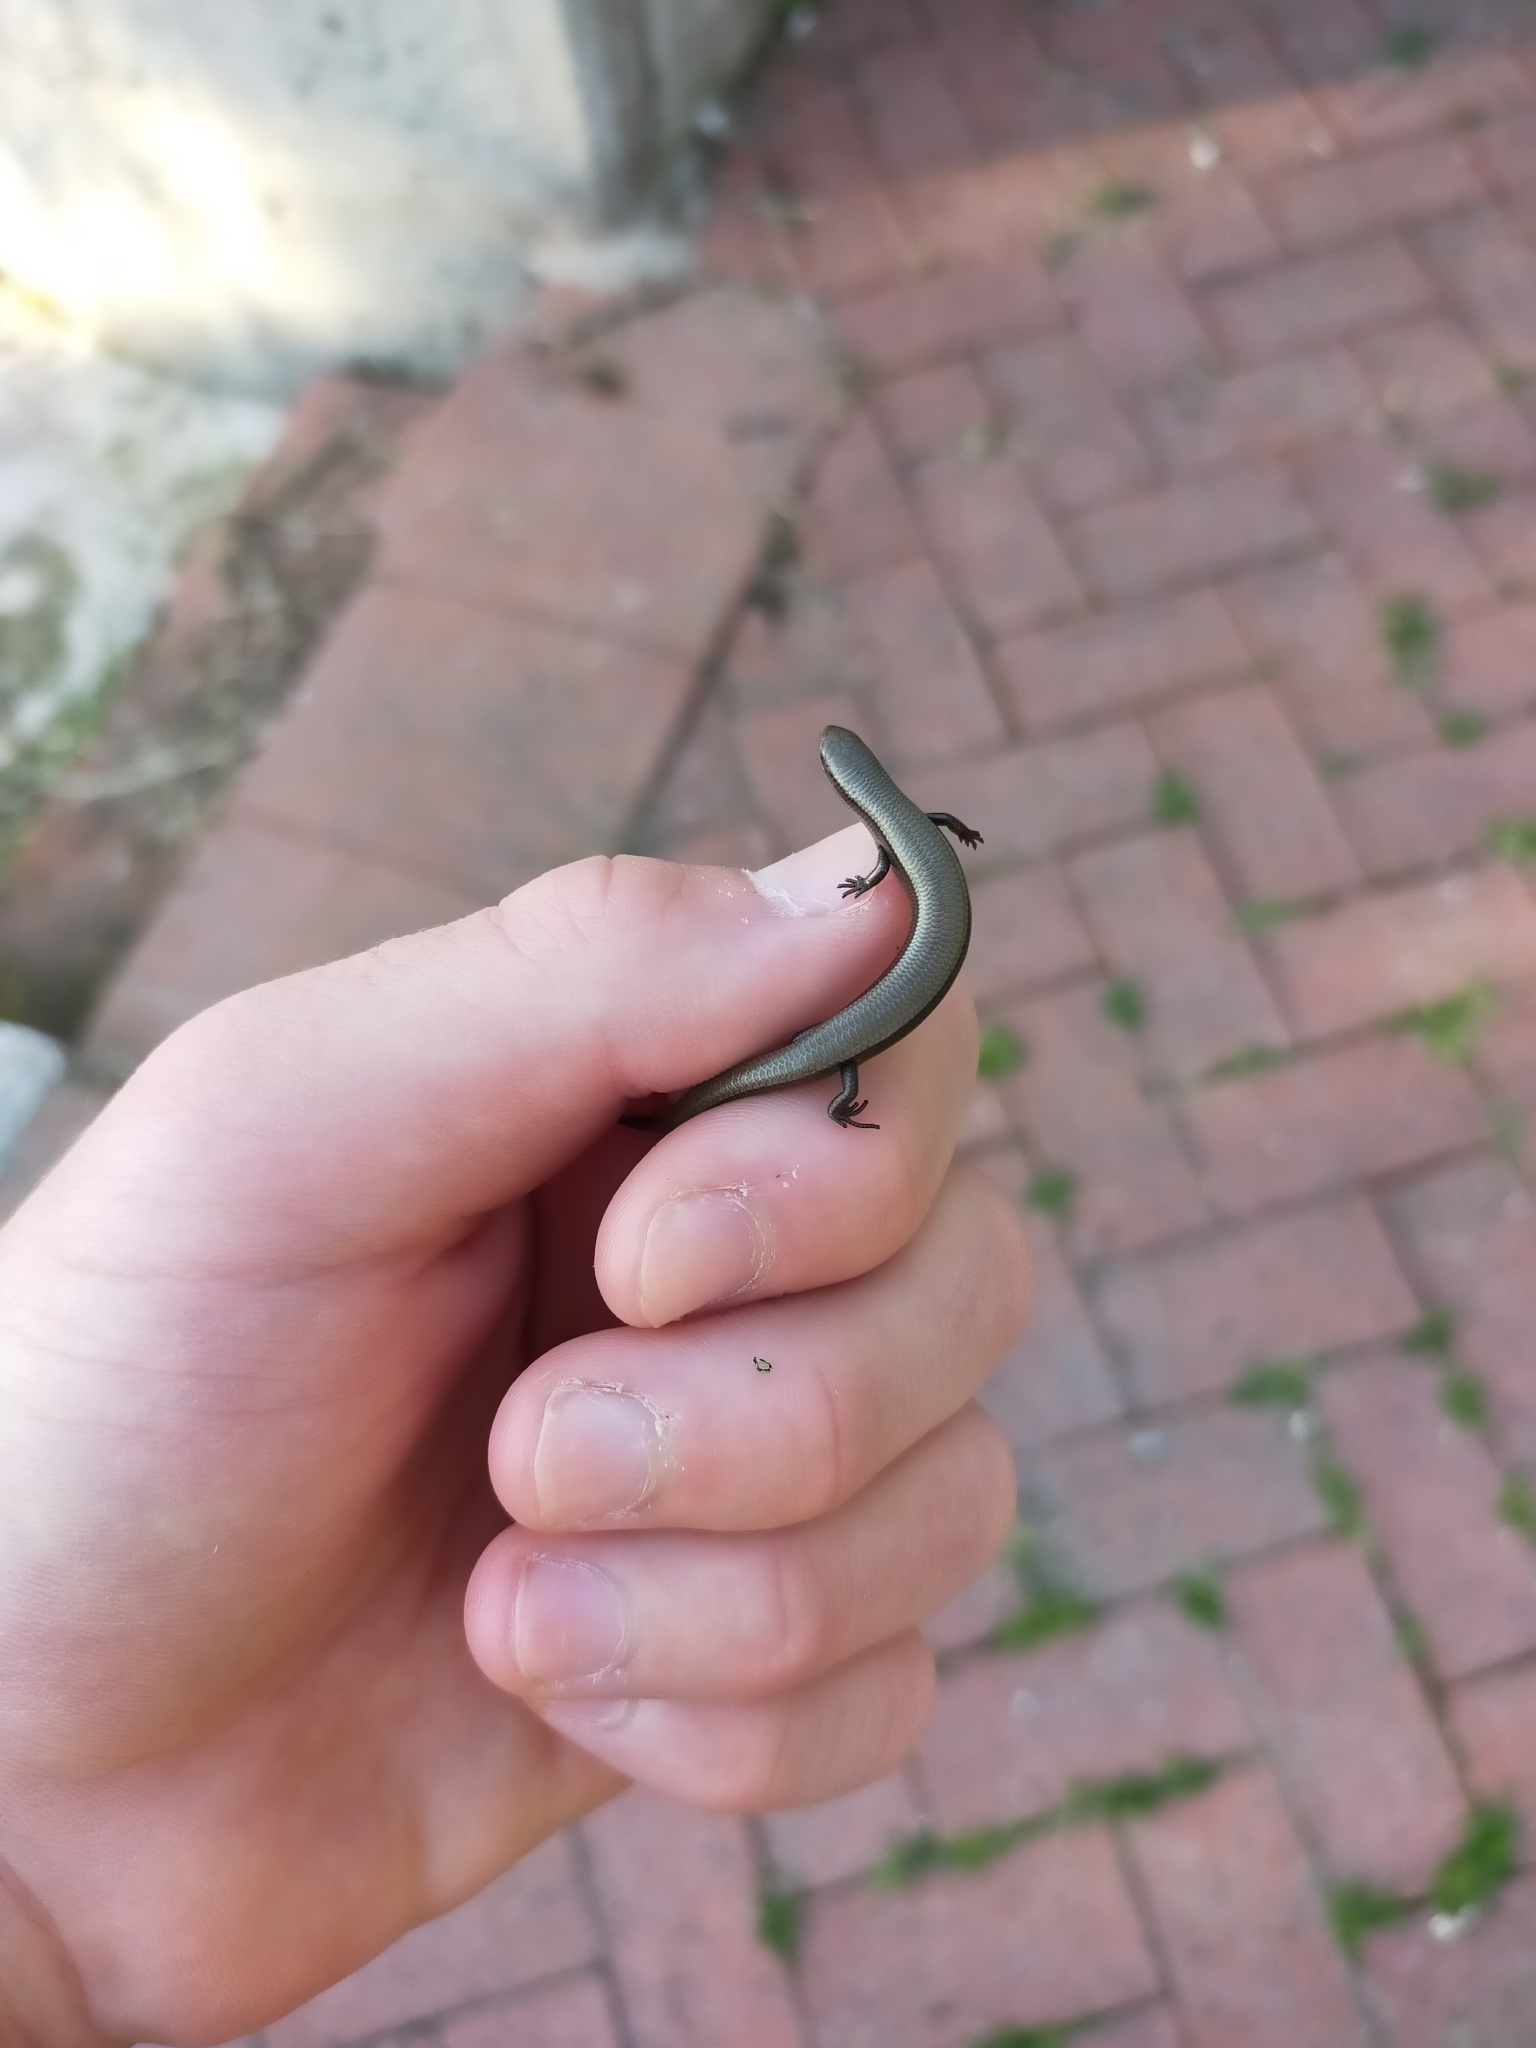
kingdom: Animalia
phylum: Chordata
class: Squamata
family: Scincidae
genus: Ablepharus
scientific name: Ablepharus kitaibelii
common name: Juniper skink
